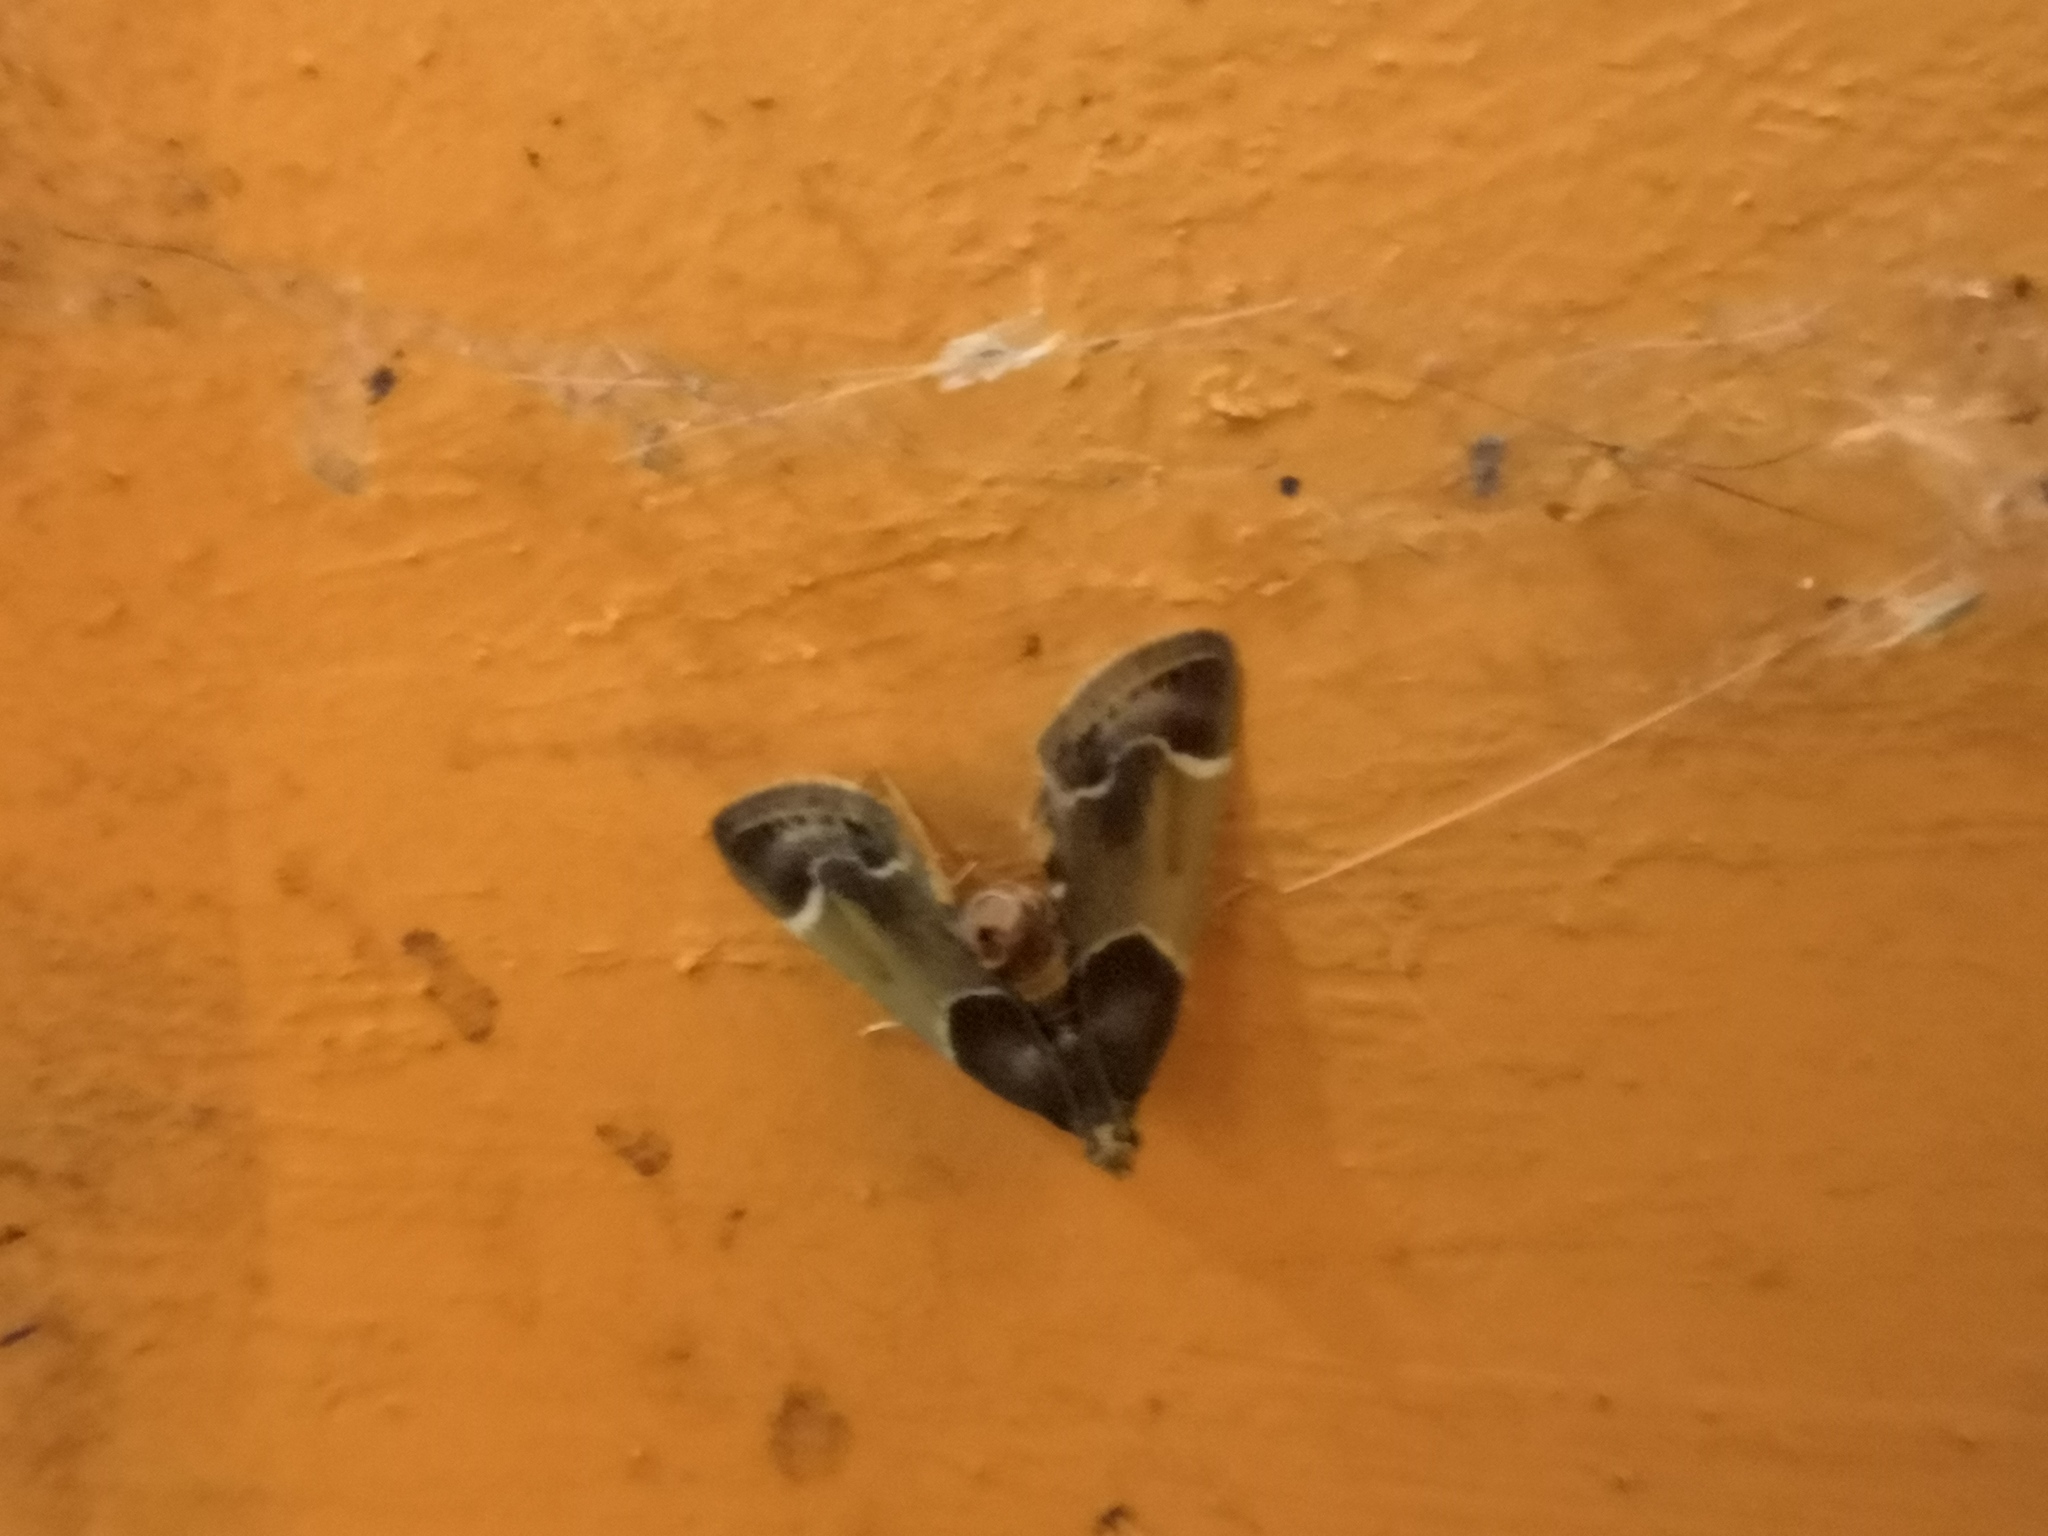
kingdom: Animalia
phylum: Arthropoda
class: Insecta
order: Lepidoptera
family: Pyralidae
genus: Pyralis
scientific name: Pyralis farinalis
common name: Meal moth
